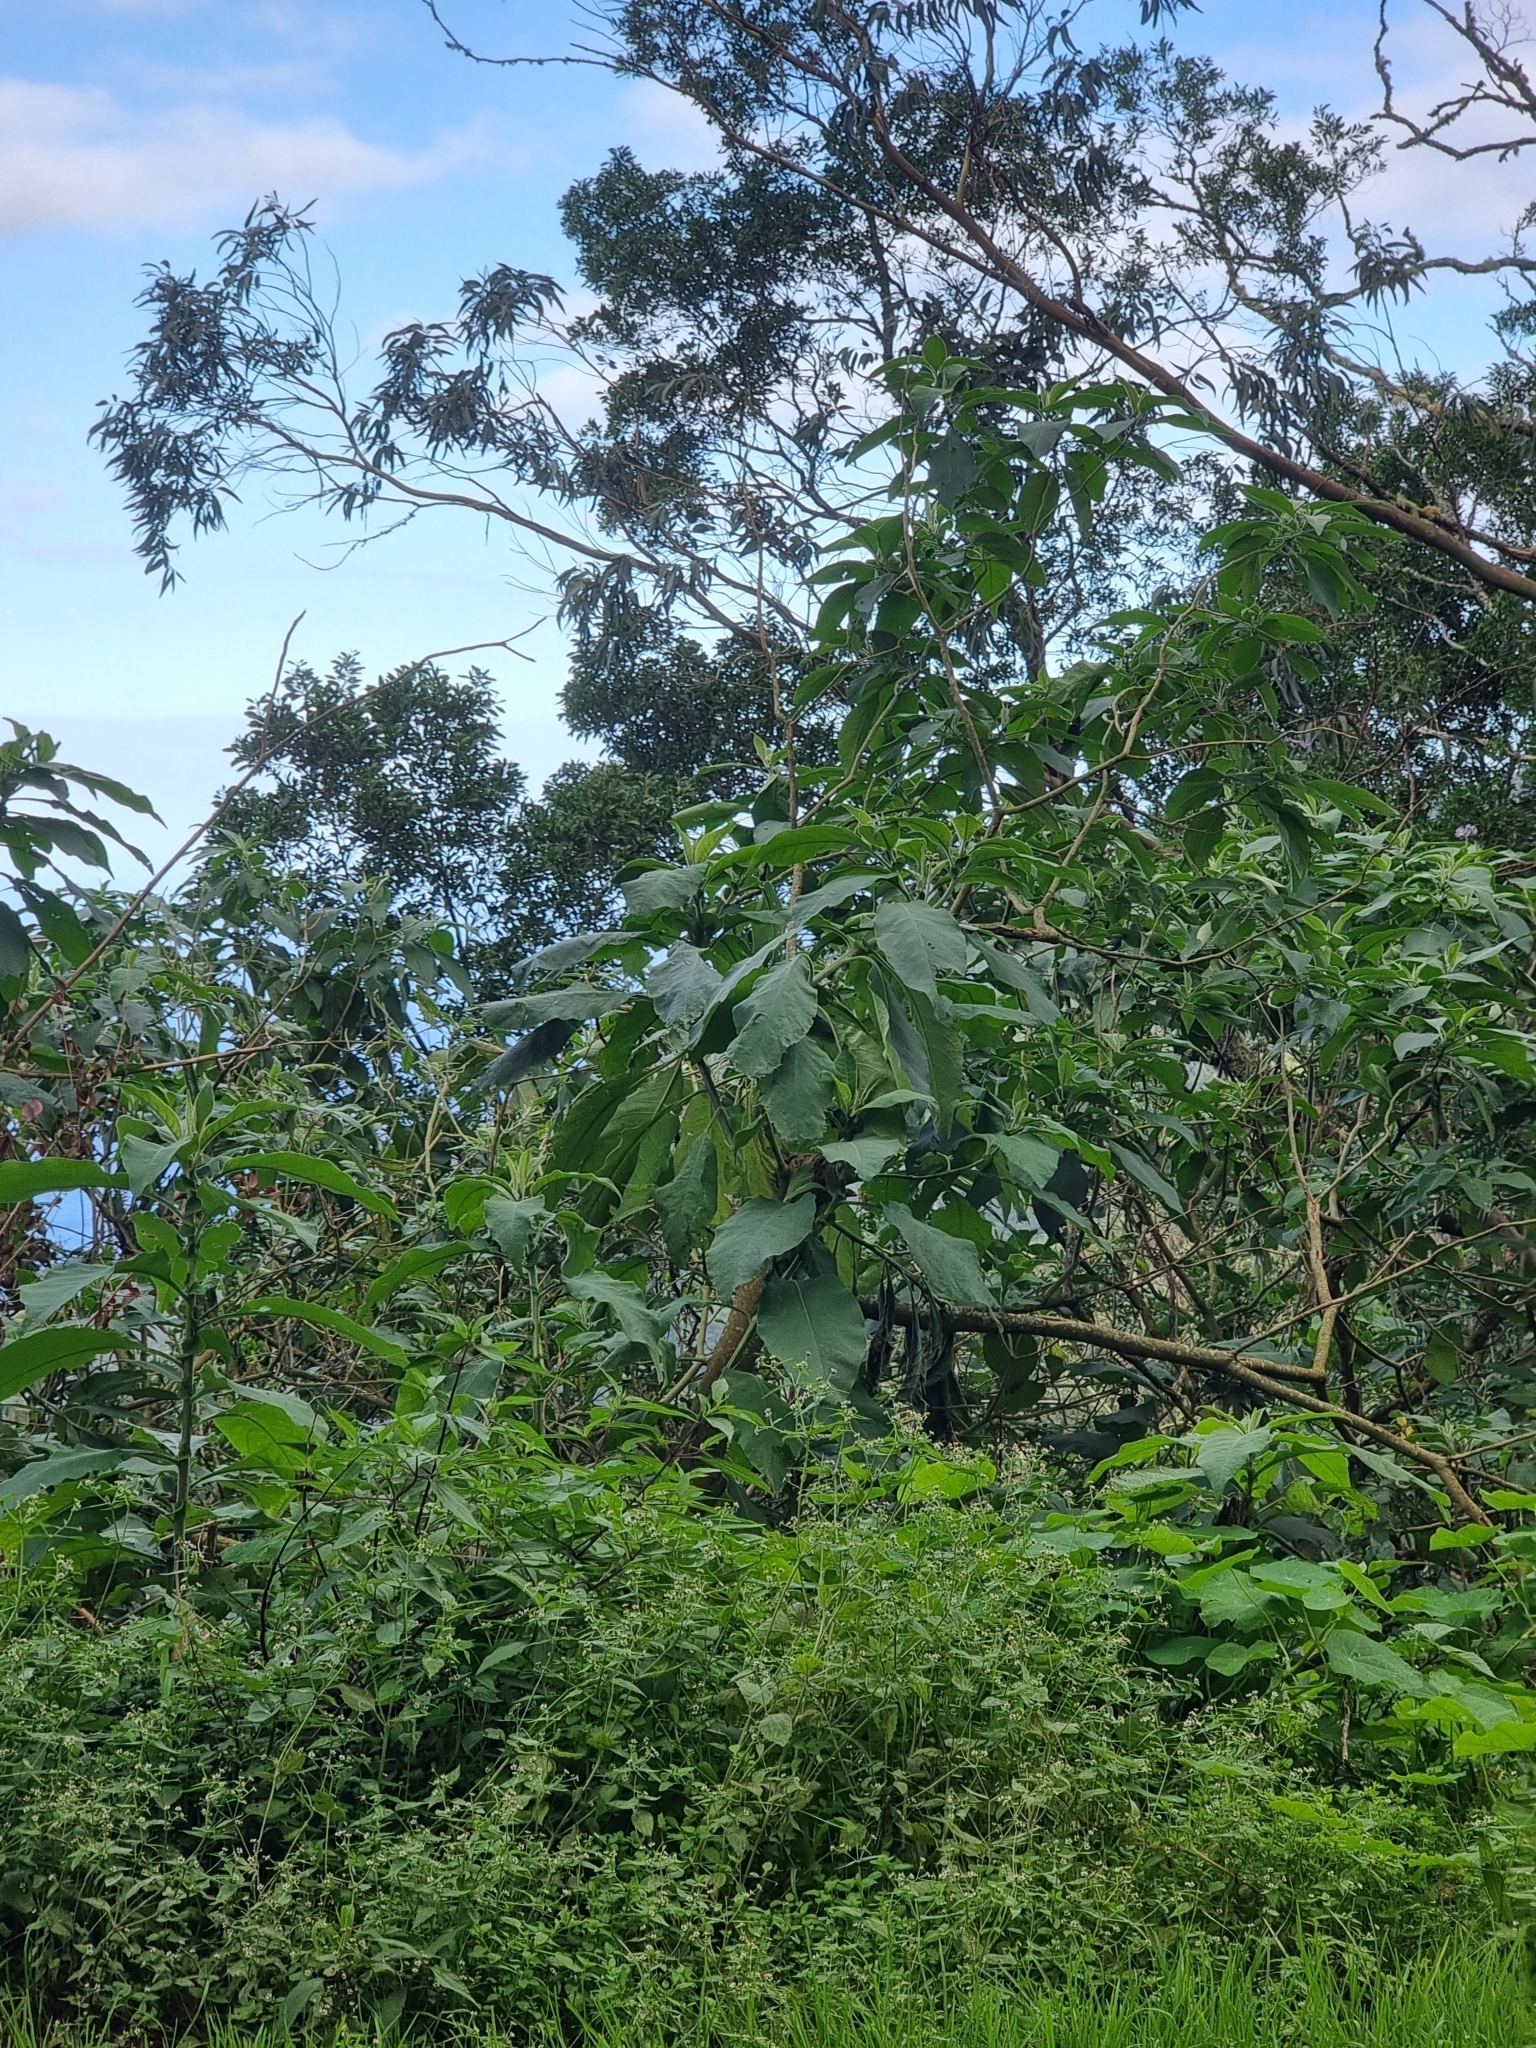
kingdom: Plantae
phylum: Tracheophyta
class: Magnoliopsida
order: Solanales
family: Solanaceae
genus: Solanum
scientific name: Solanum mauritianum
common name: Earleaf nightshade
